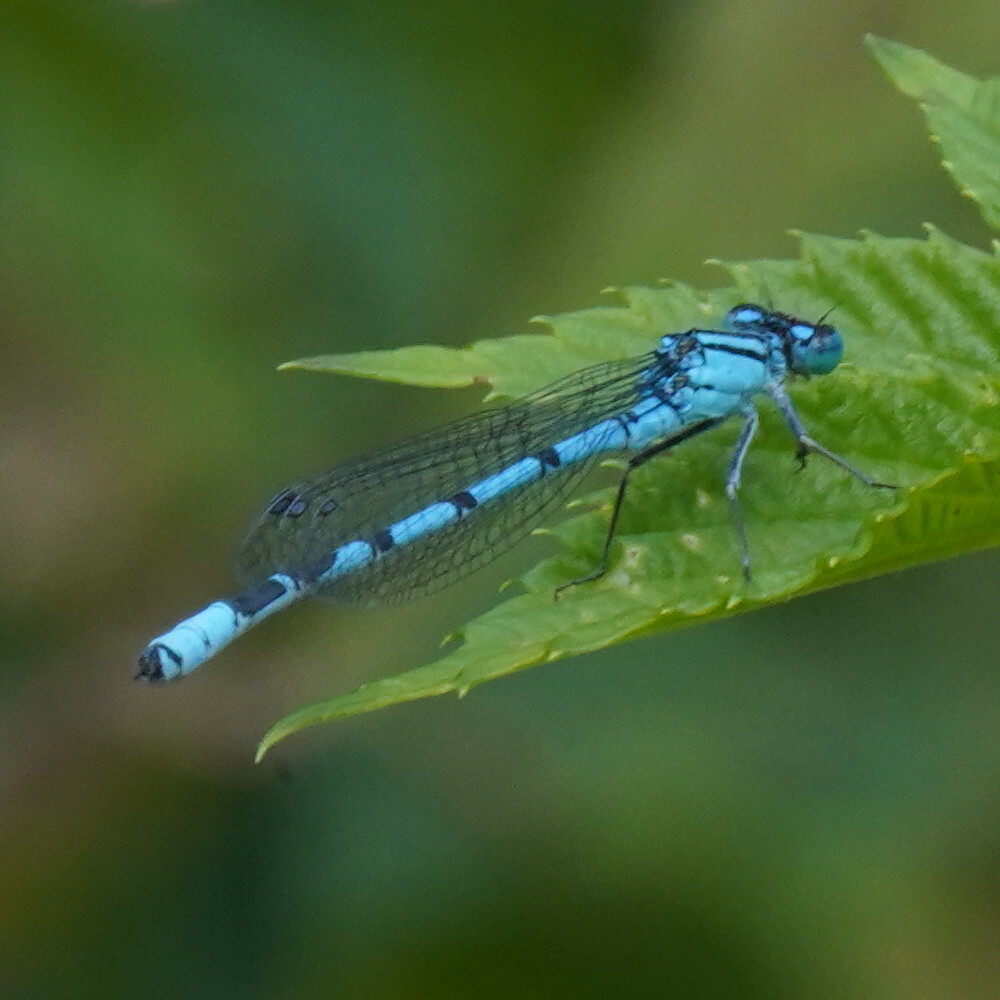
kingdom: Animalia
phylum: Arthropoda
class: Insecta
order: Odonata
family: Coenagrionidae
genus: Enallagma
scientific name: Enallagma cyathigerum
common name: Common blue damselfly
